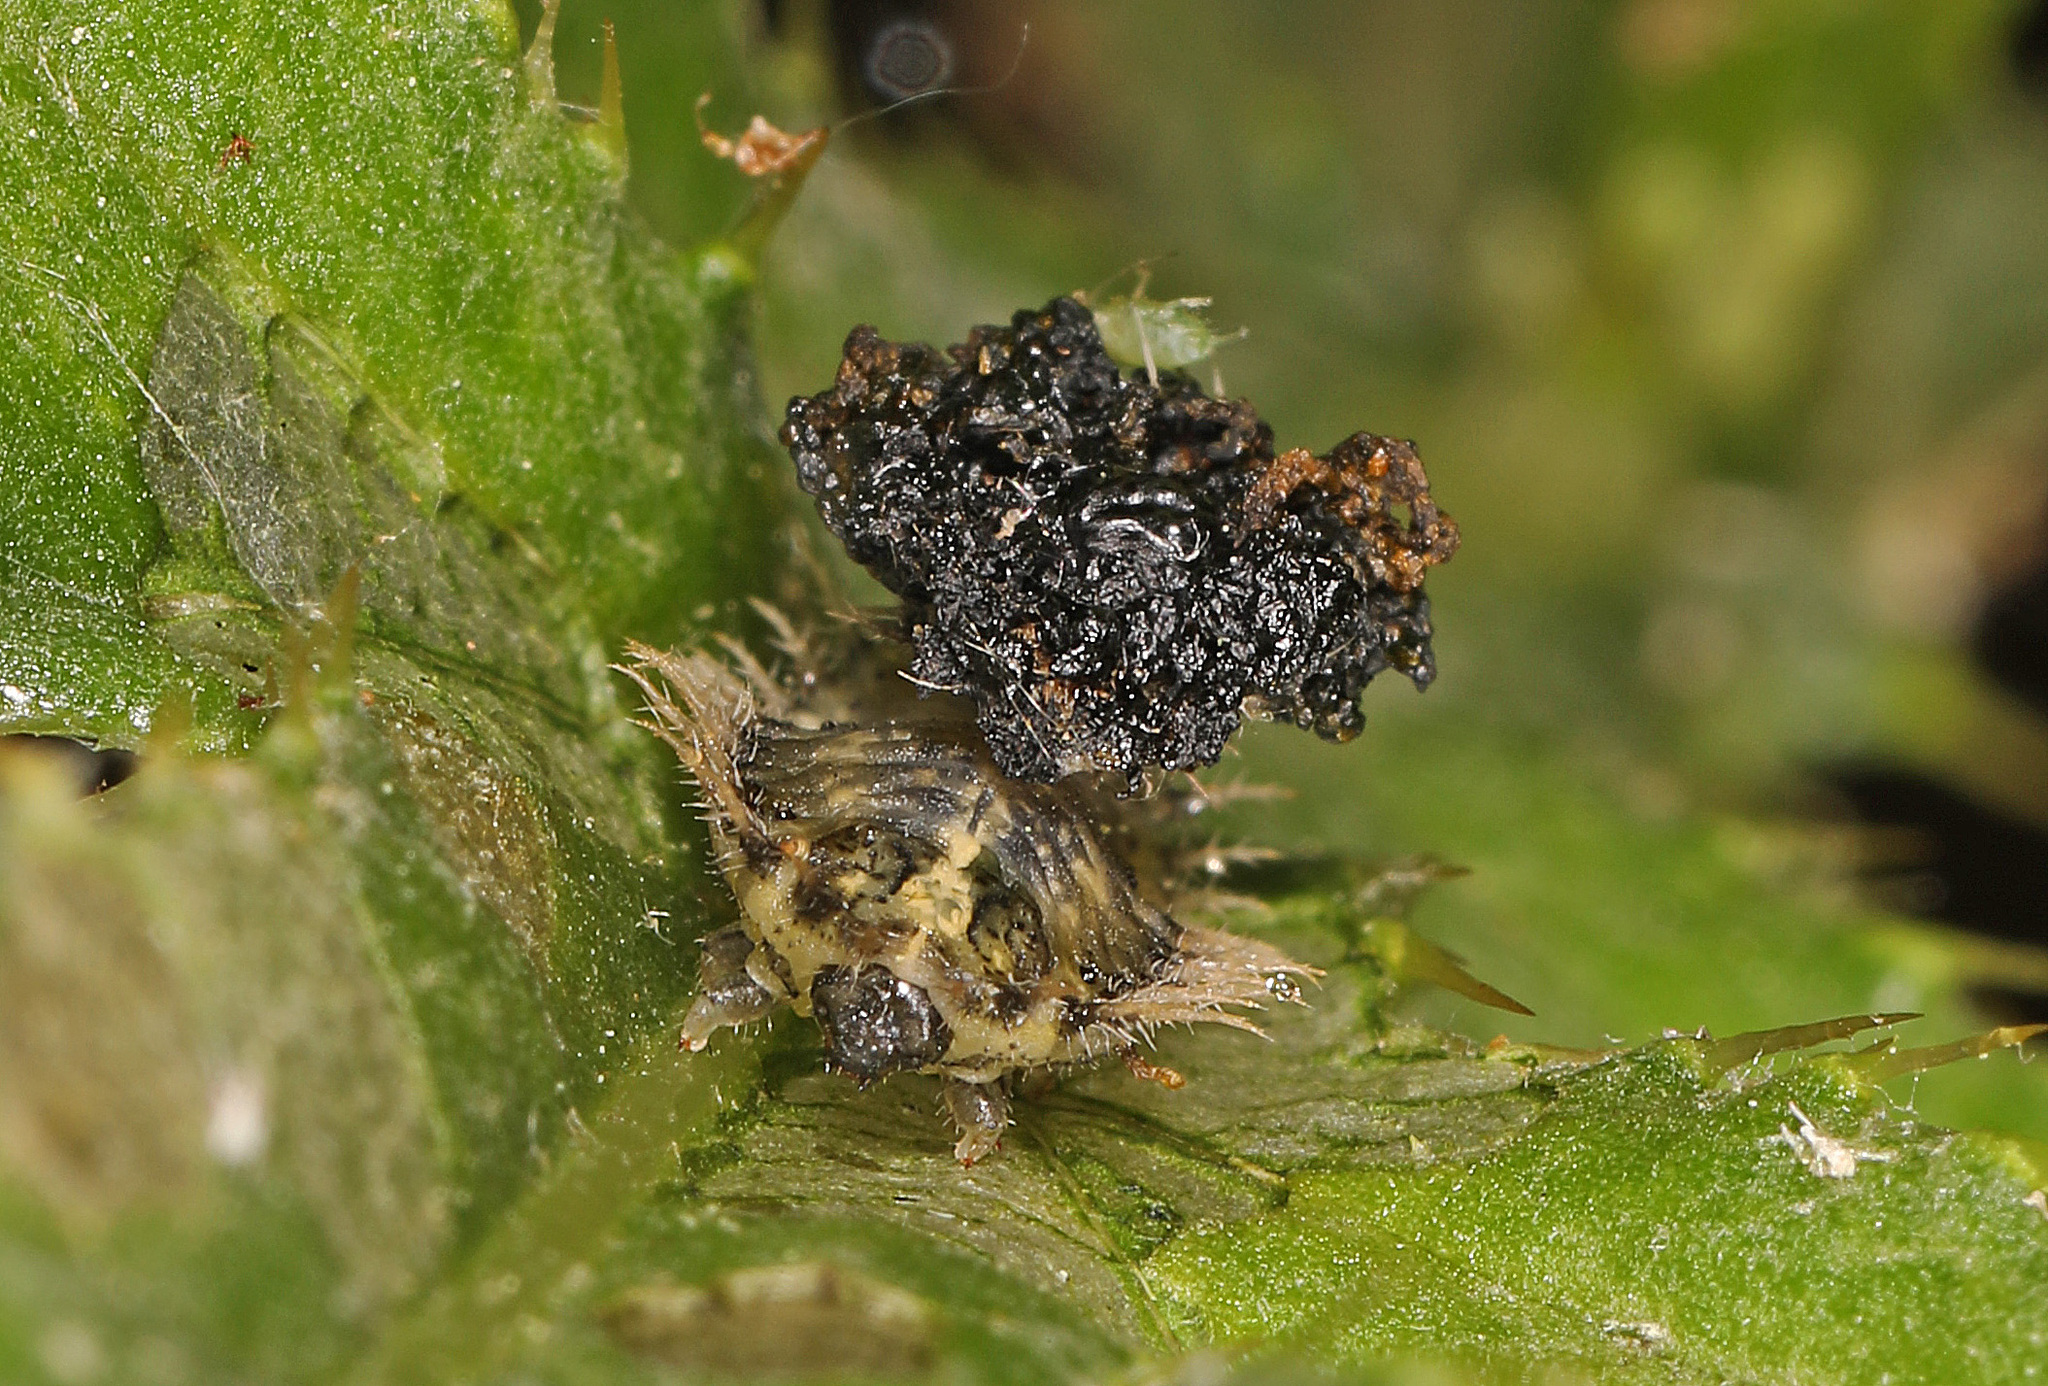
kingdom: Animalia
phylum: Arthropoda
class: Insecta
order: Coleoptera
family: Chrysomelidae
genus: Cassida
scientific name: Cassida rubiginosa
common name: Thistle tortoise beetle
